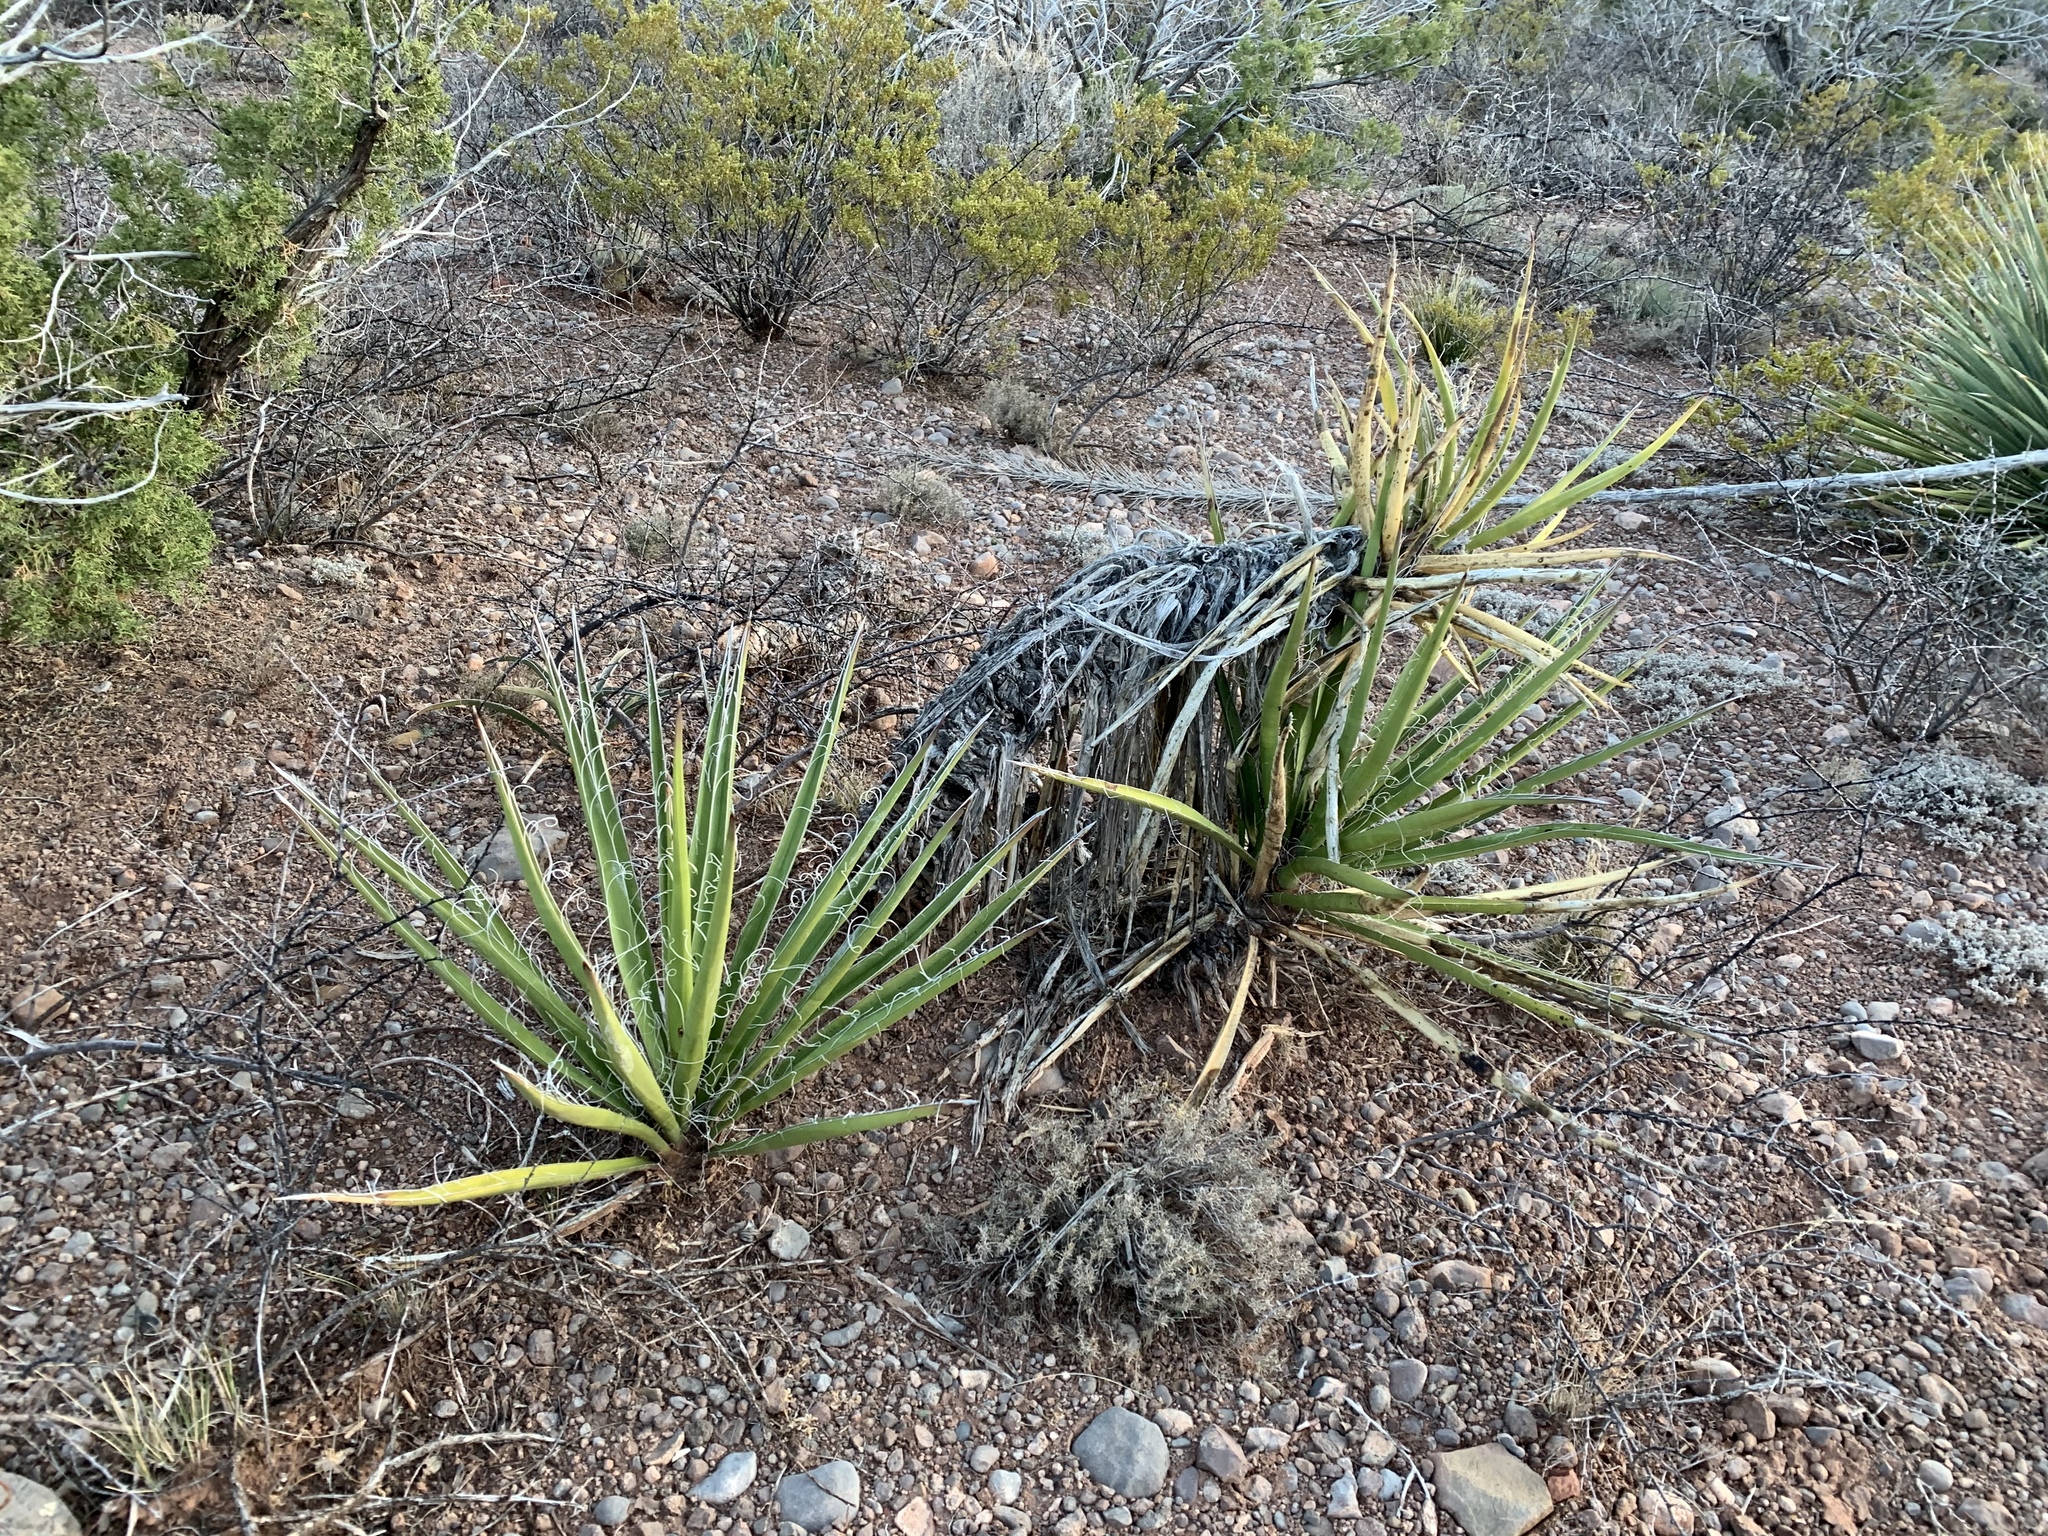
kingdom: Plantae
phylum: Tracheophyta
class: Liliopsida
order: Asparagales
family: Asparagaceae
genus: Yucca
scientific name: Yucca baccata
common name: Banana yucca
